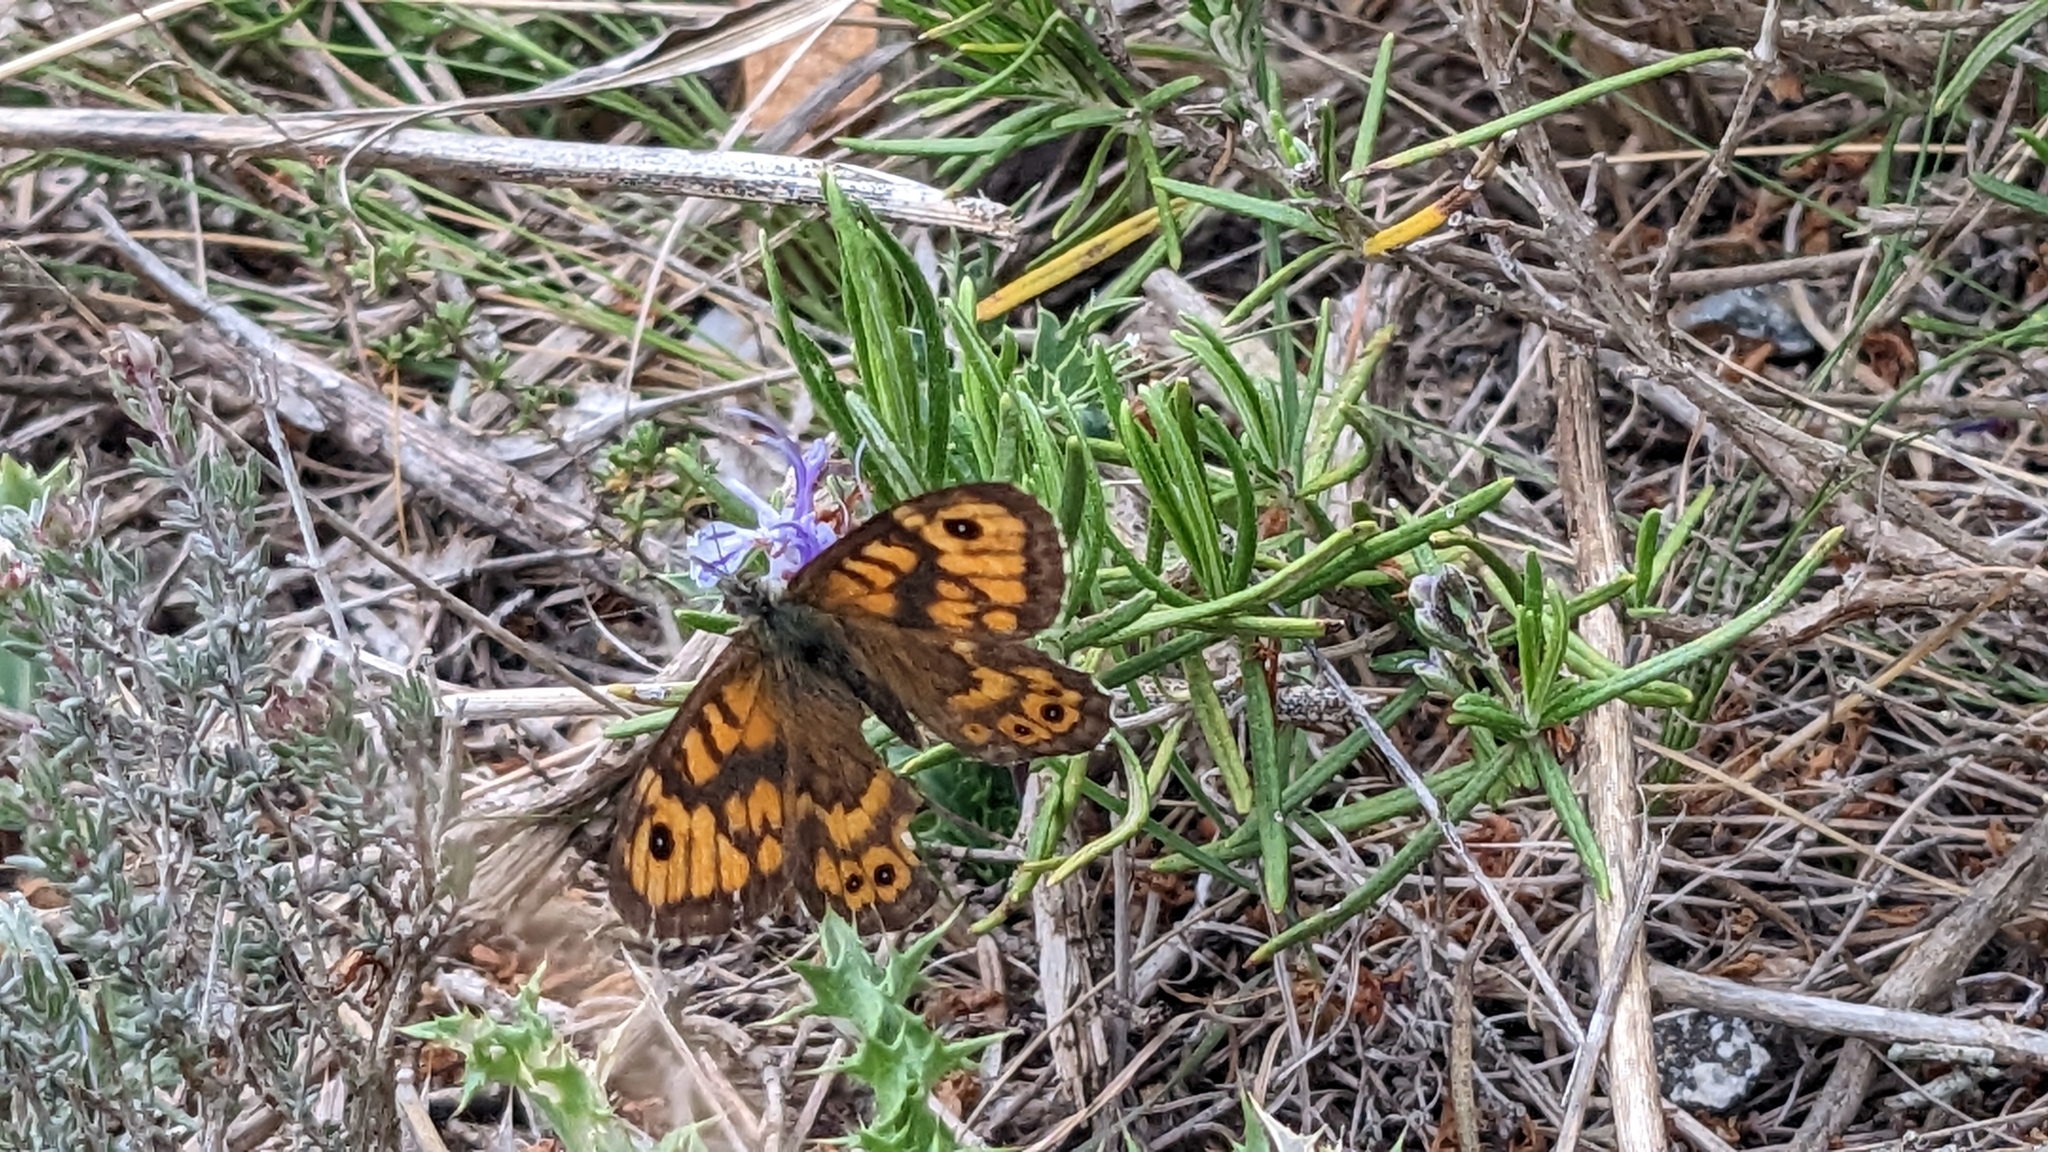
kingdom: Animalia
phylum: Arthropoda
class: Insecta
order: Lepidoptera
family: Nymphalidae
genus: Pararge
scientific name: Pararge Lasiommata megera
